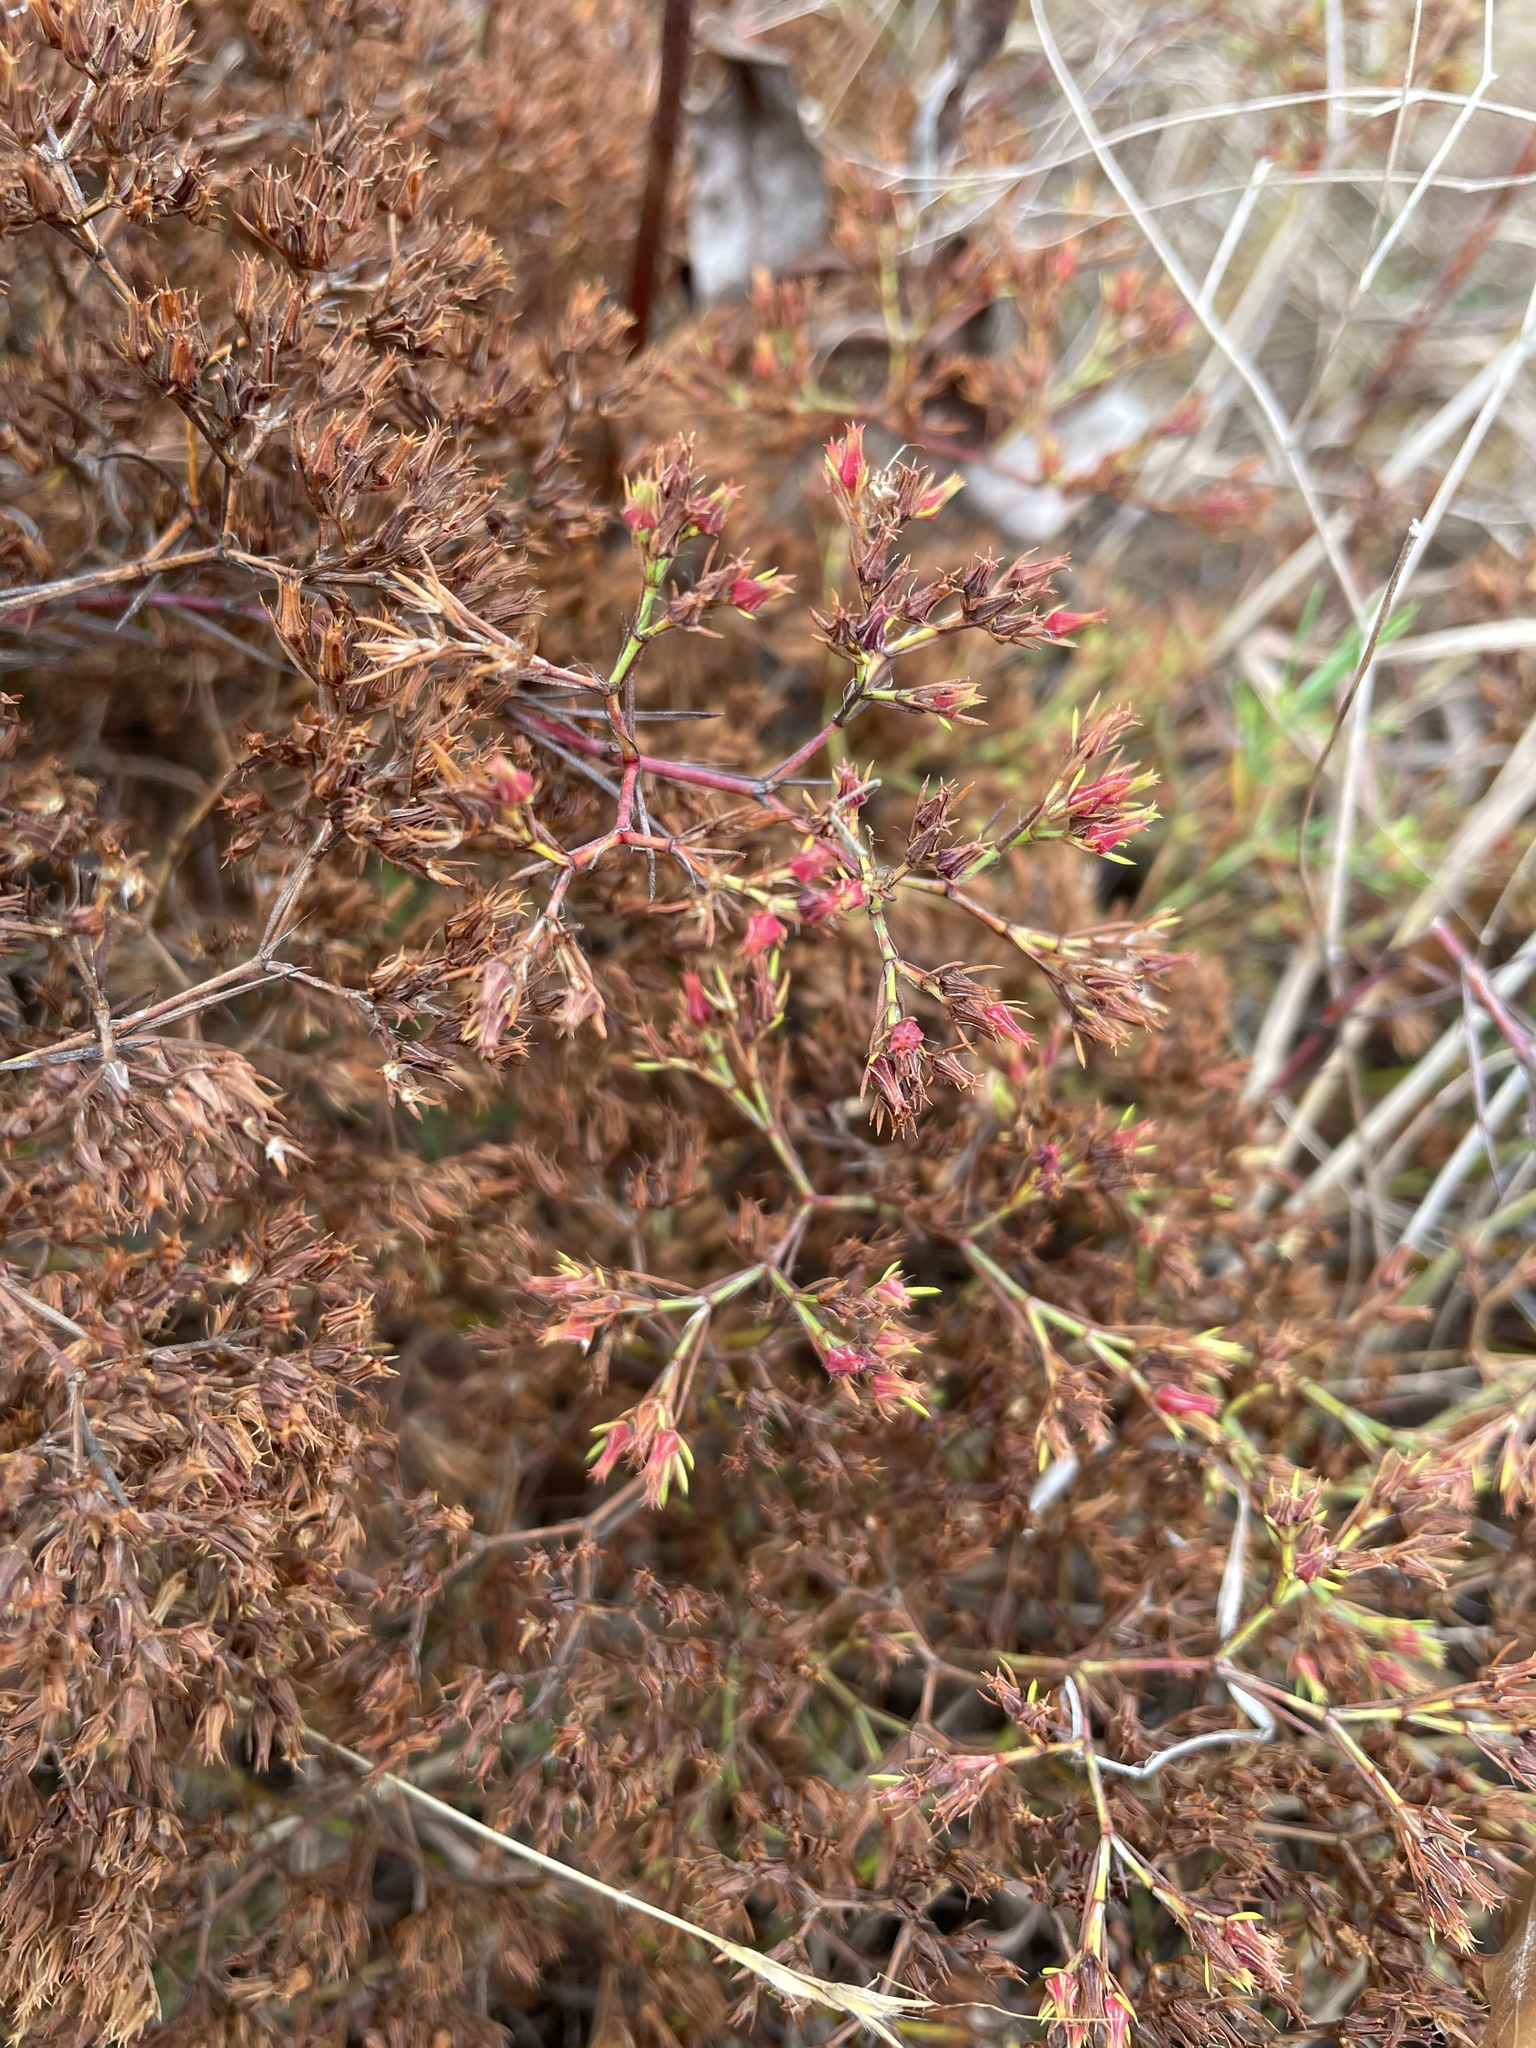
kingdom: Plantae
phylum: Tracheophyta
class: Magnoliopsida
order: Caryophyllales
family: Caryophyllaceae
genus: Paronychia
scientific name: Paronychia virginica
